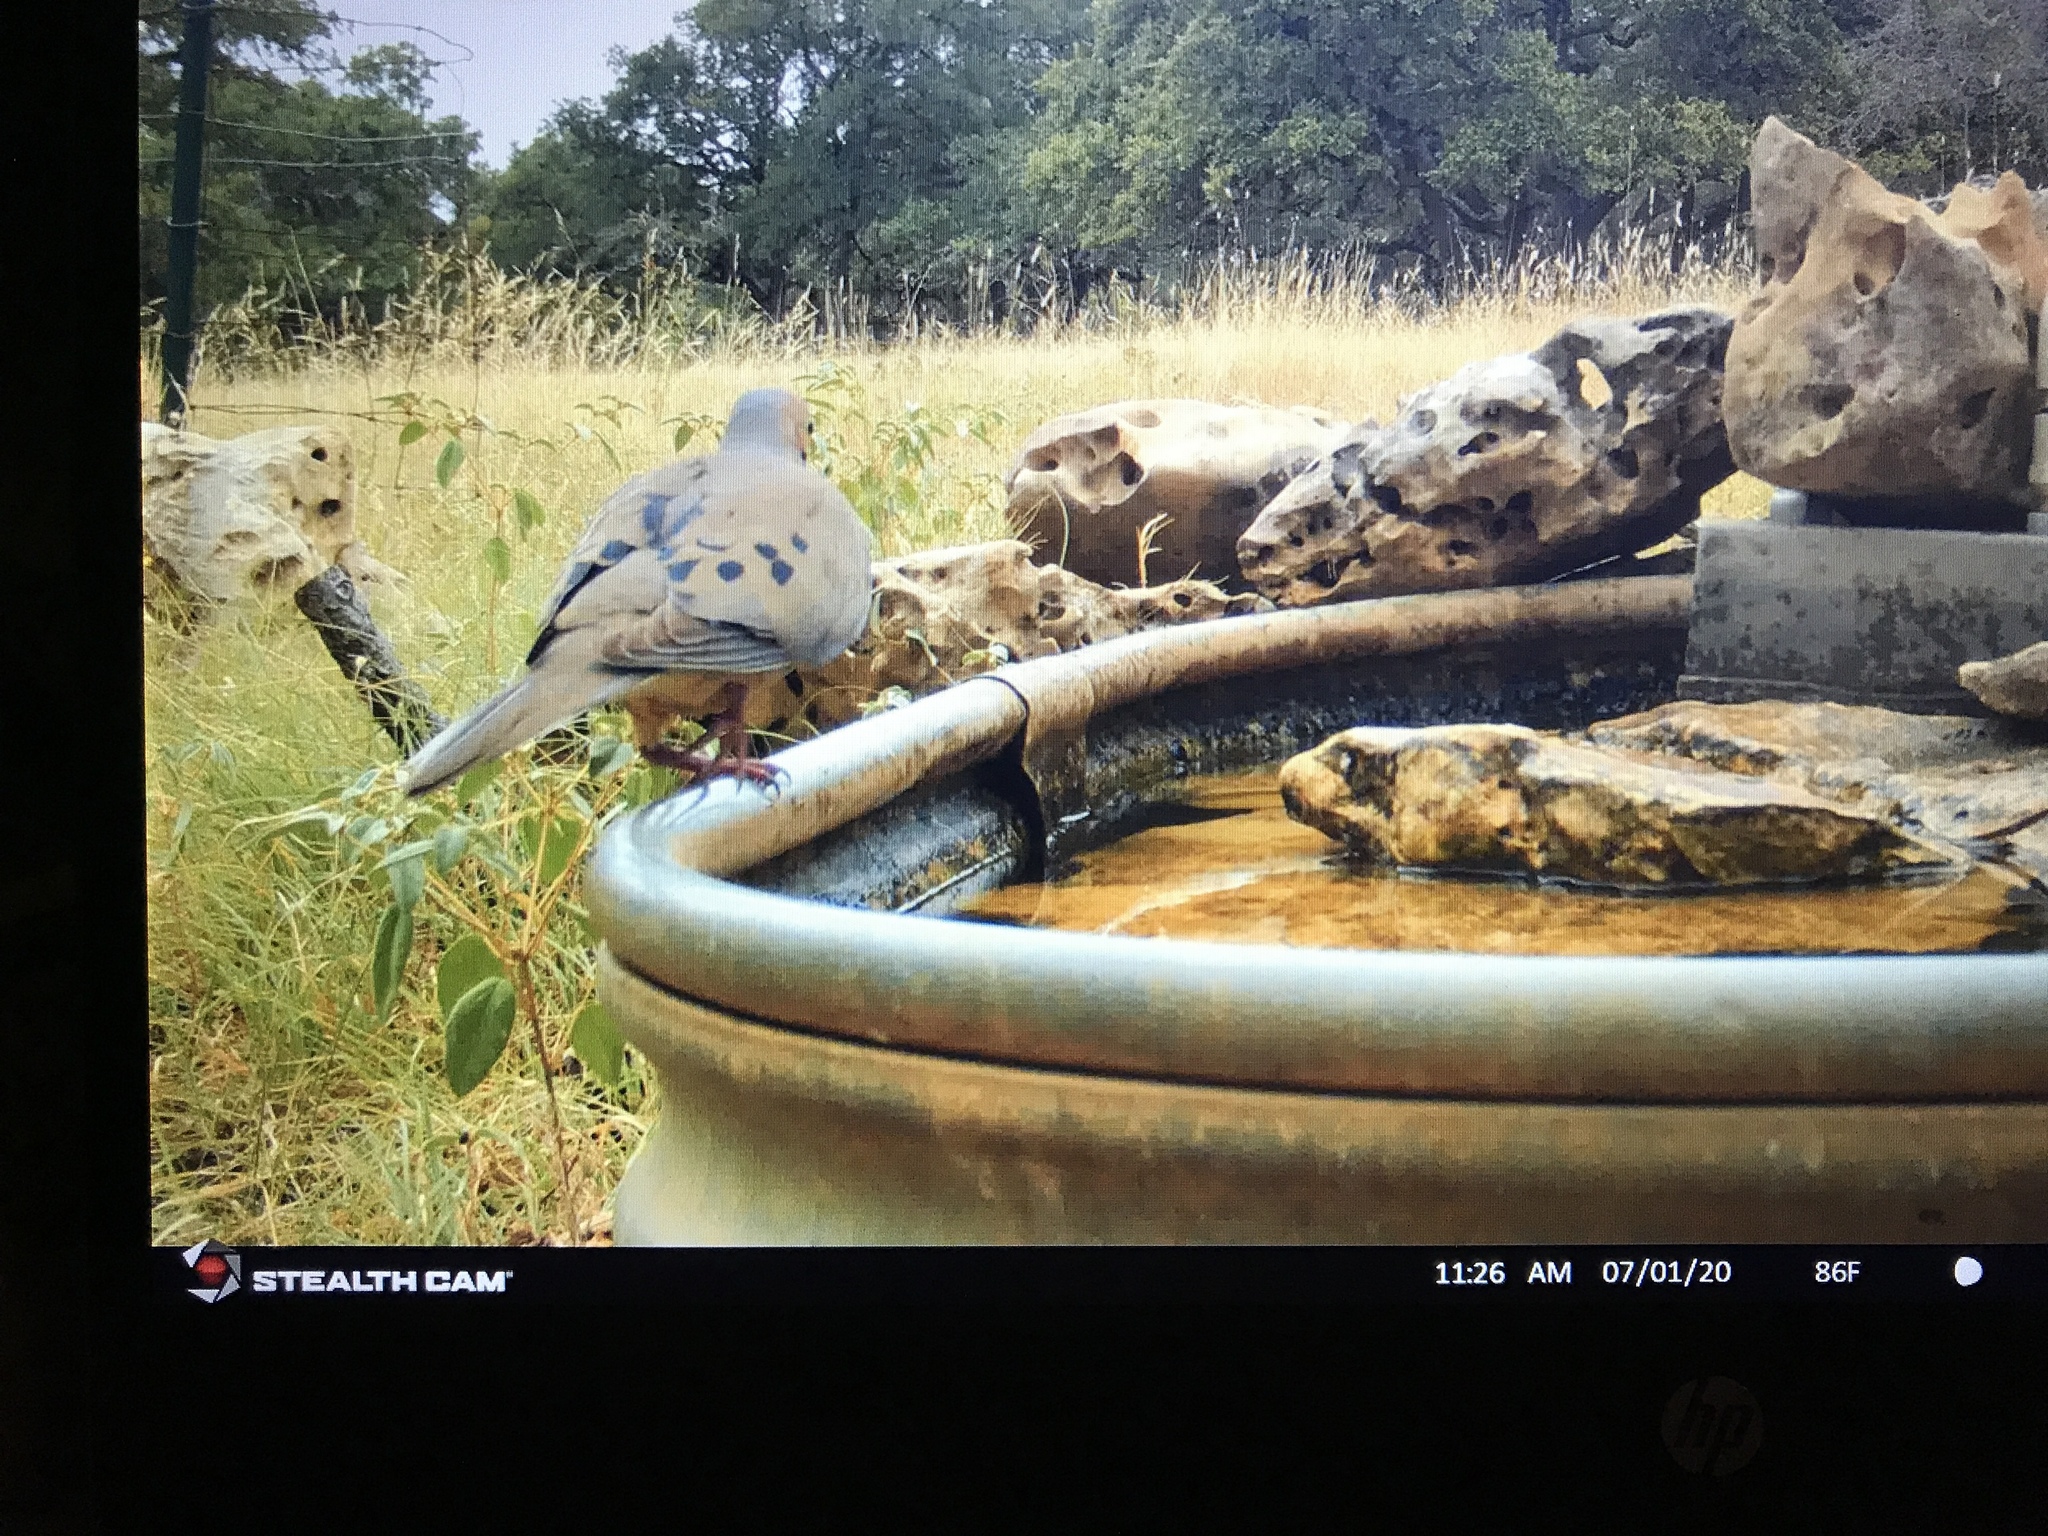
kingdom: Animalia
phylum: Chordata
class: Aves
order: Columbiformes
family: Columbidae
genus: Zenaida
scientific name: Zenaida macroura
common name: Mourning dove
